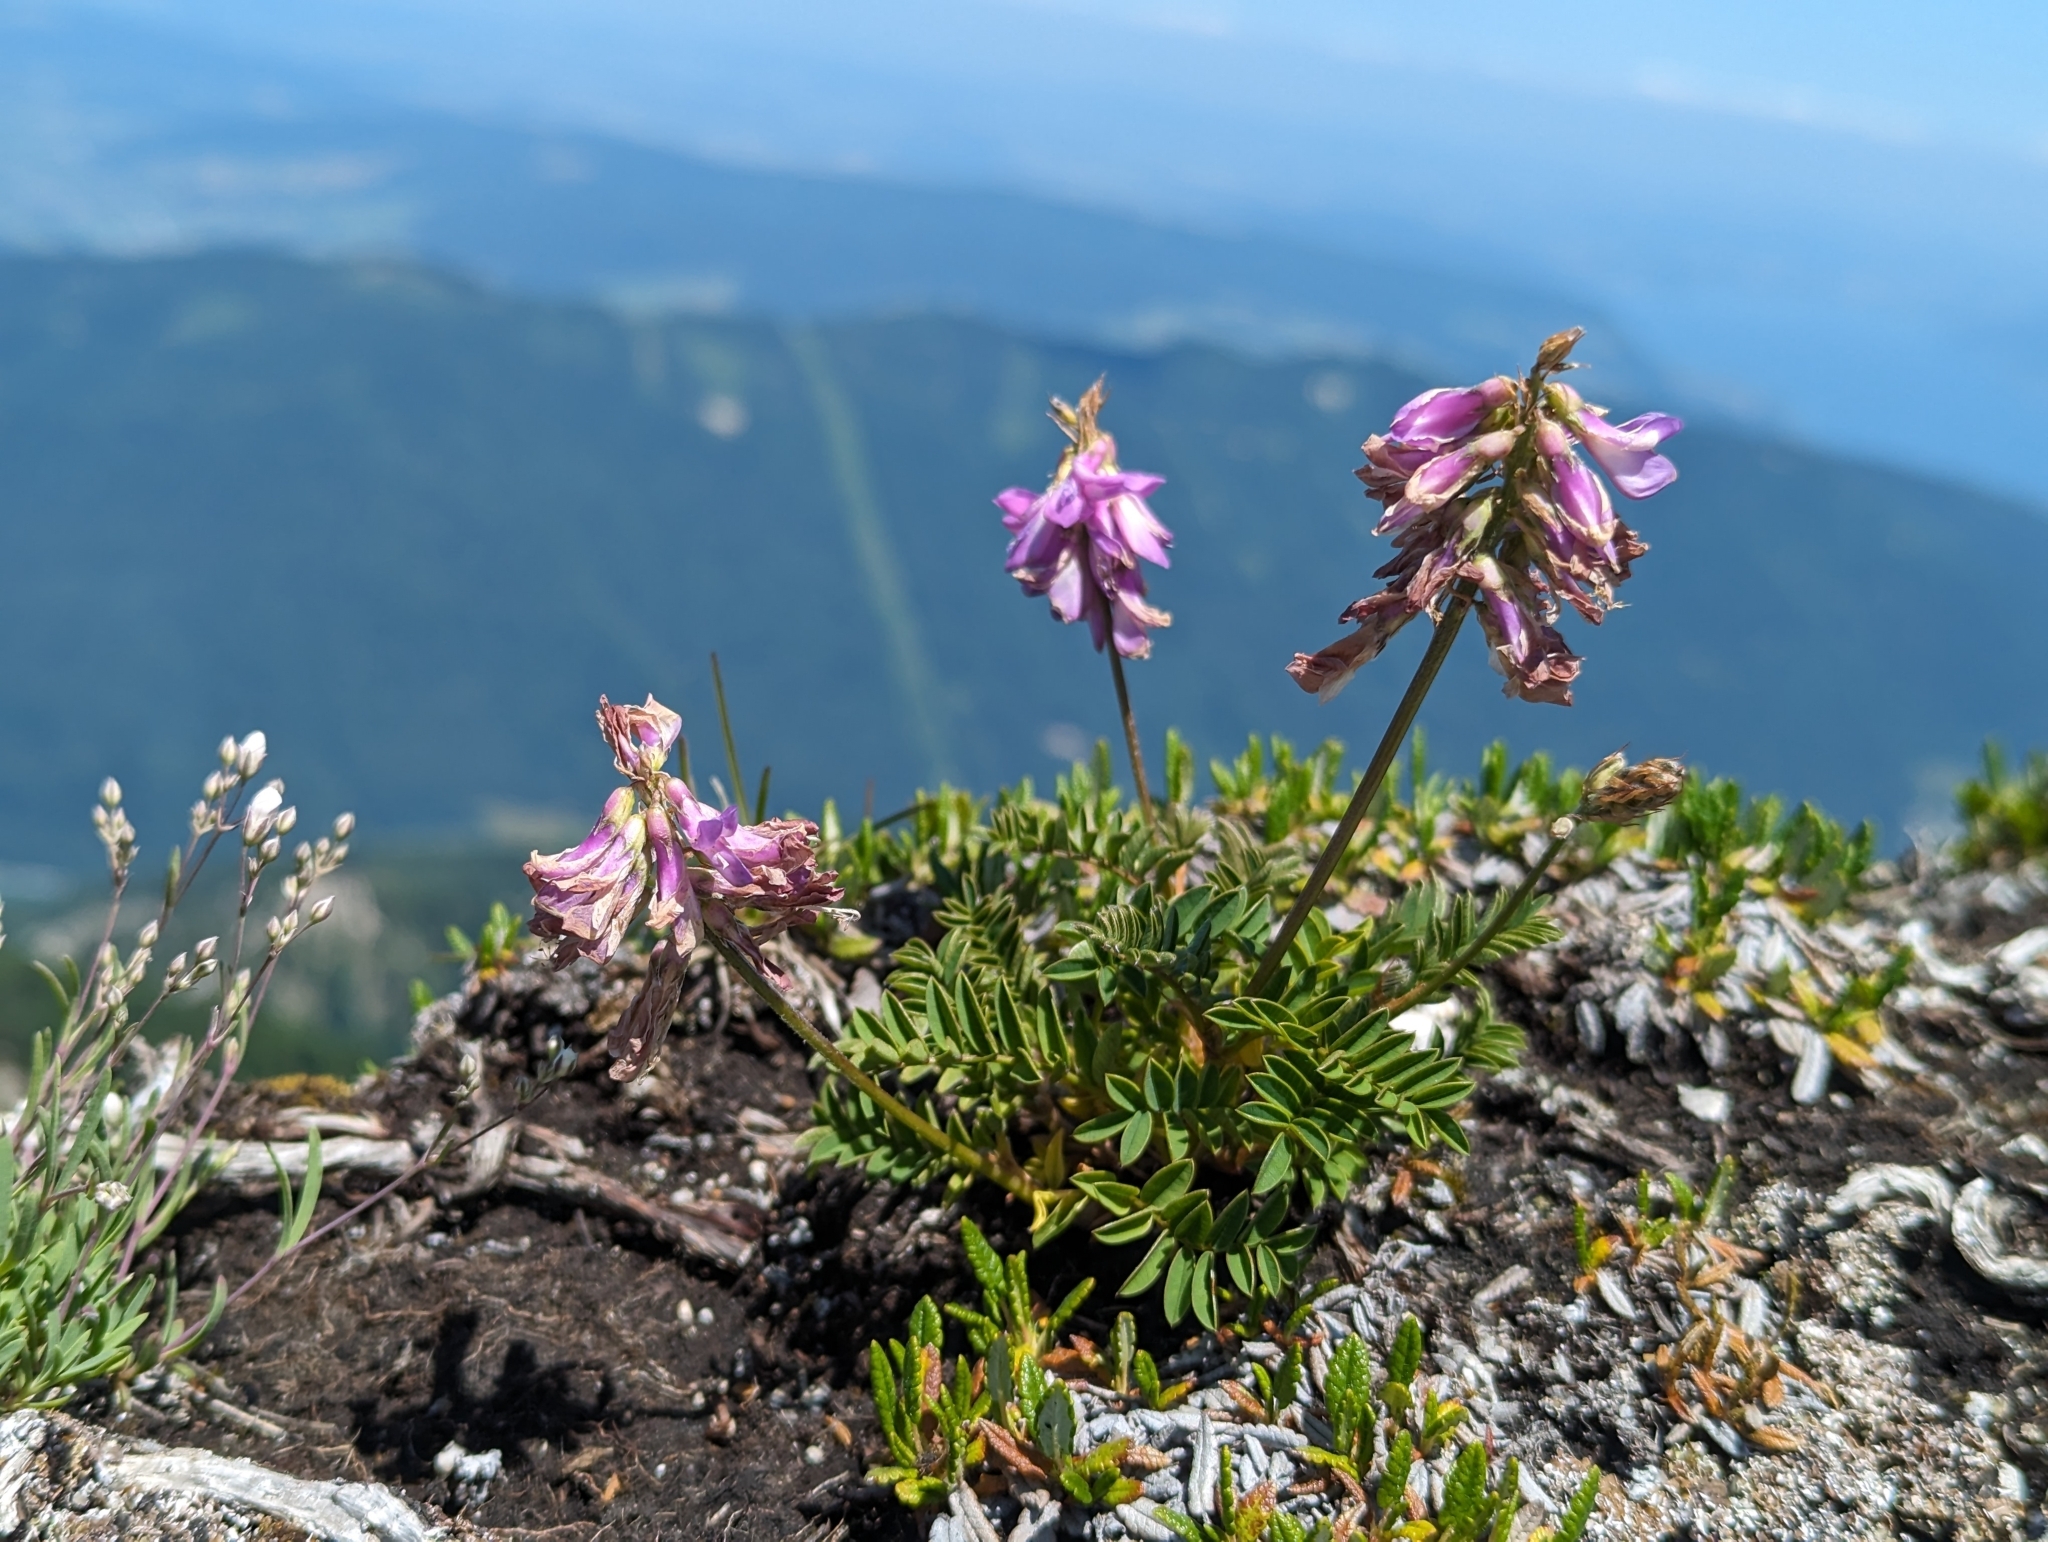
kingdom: Plantae
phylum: Tracheophyta
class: Magnoliopsida
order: Fabales
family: Fabaceae
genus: Hedysarum
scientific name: Hedysarum hedysaroides
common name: Alpine french-honeysuckle
